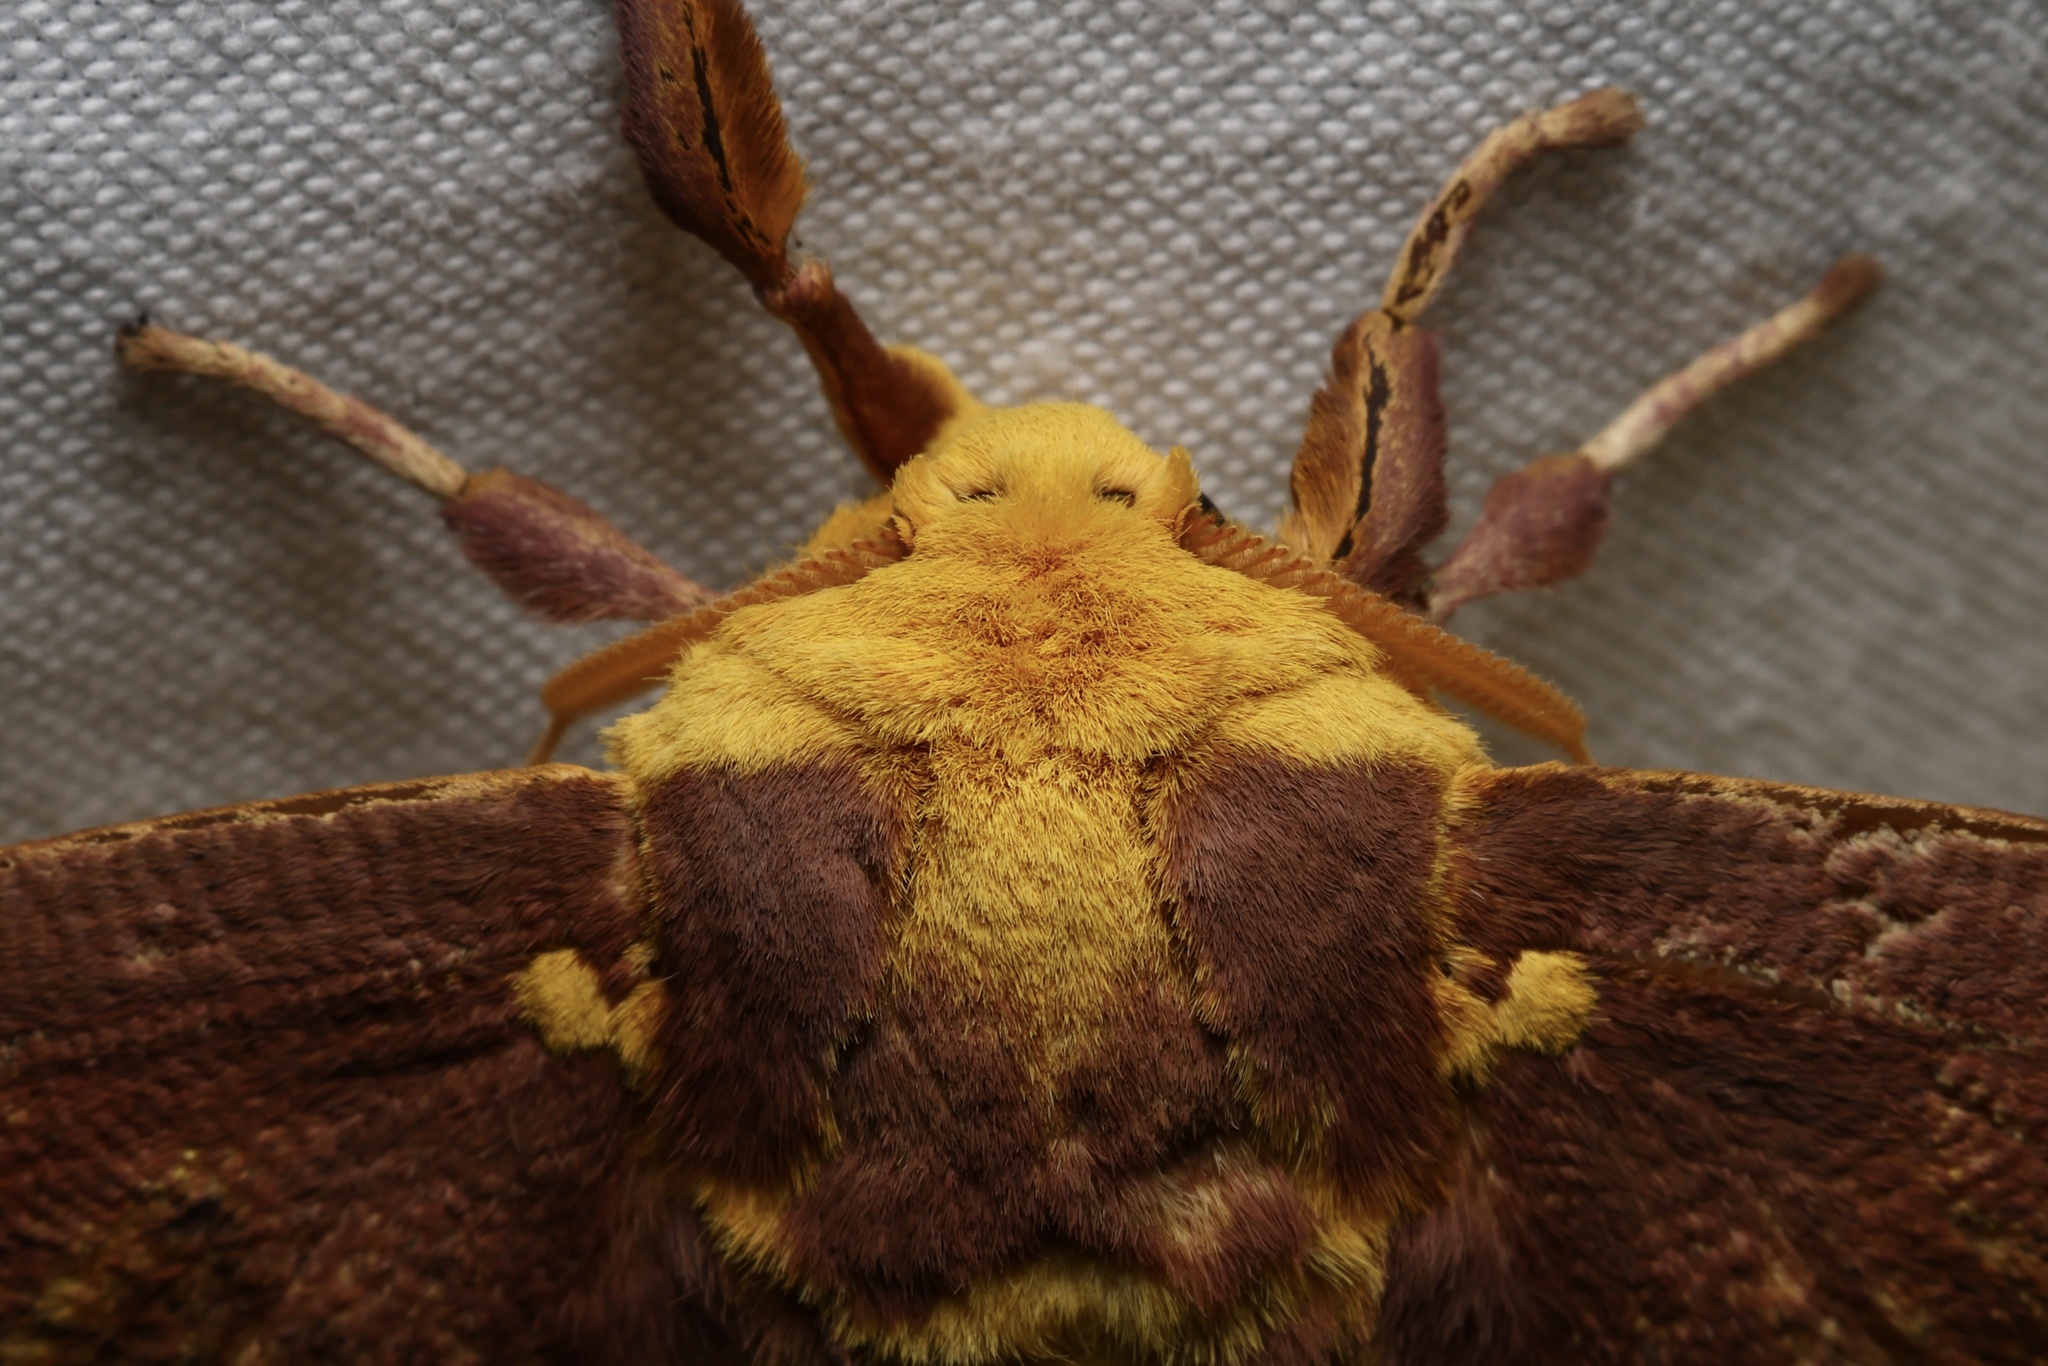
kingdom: Animalia
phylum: Arthropoda
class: Insecta
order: Lepidoptera
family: Saturniidae
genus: Eacles
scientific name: Eacles imperialis
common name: Imperial moth
